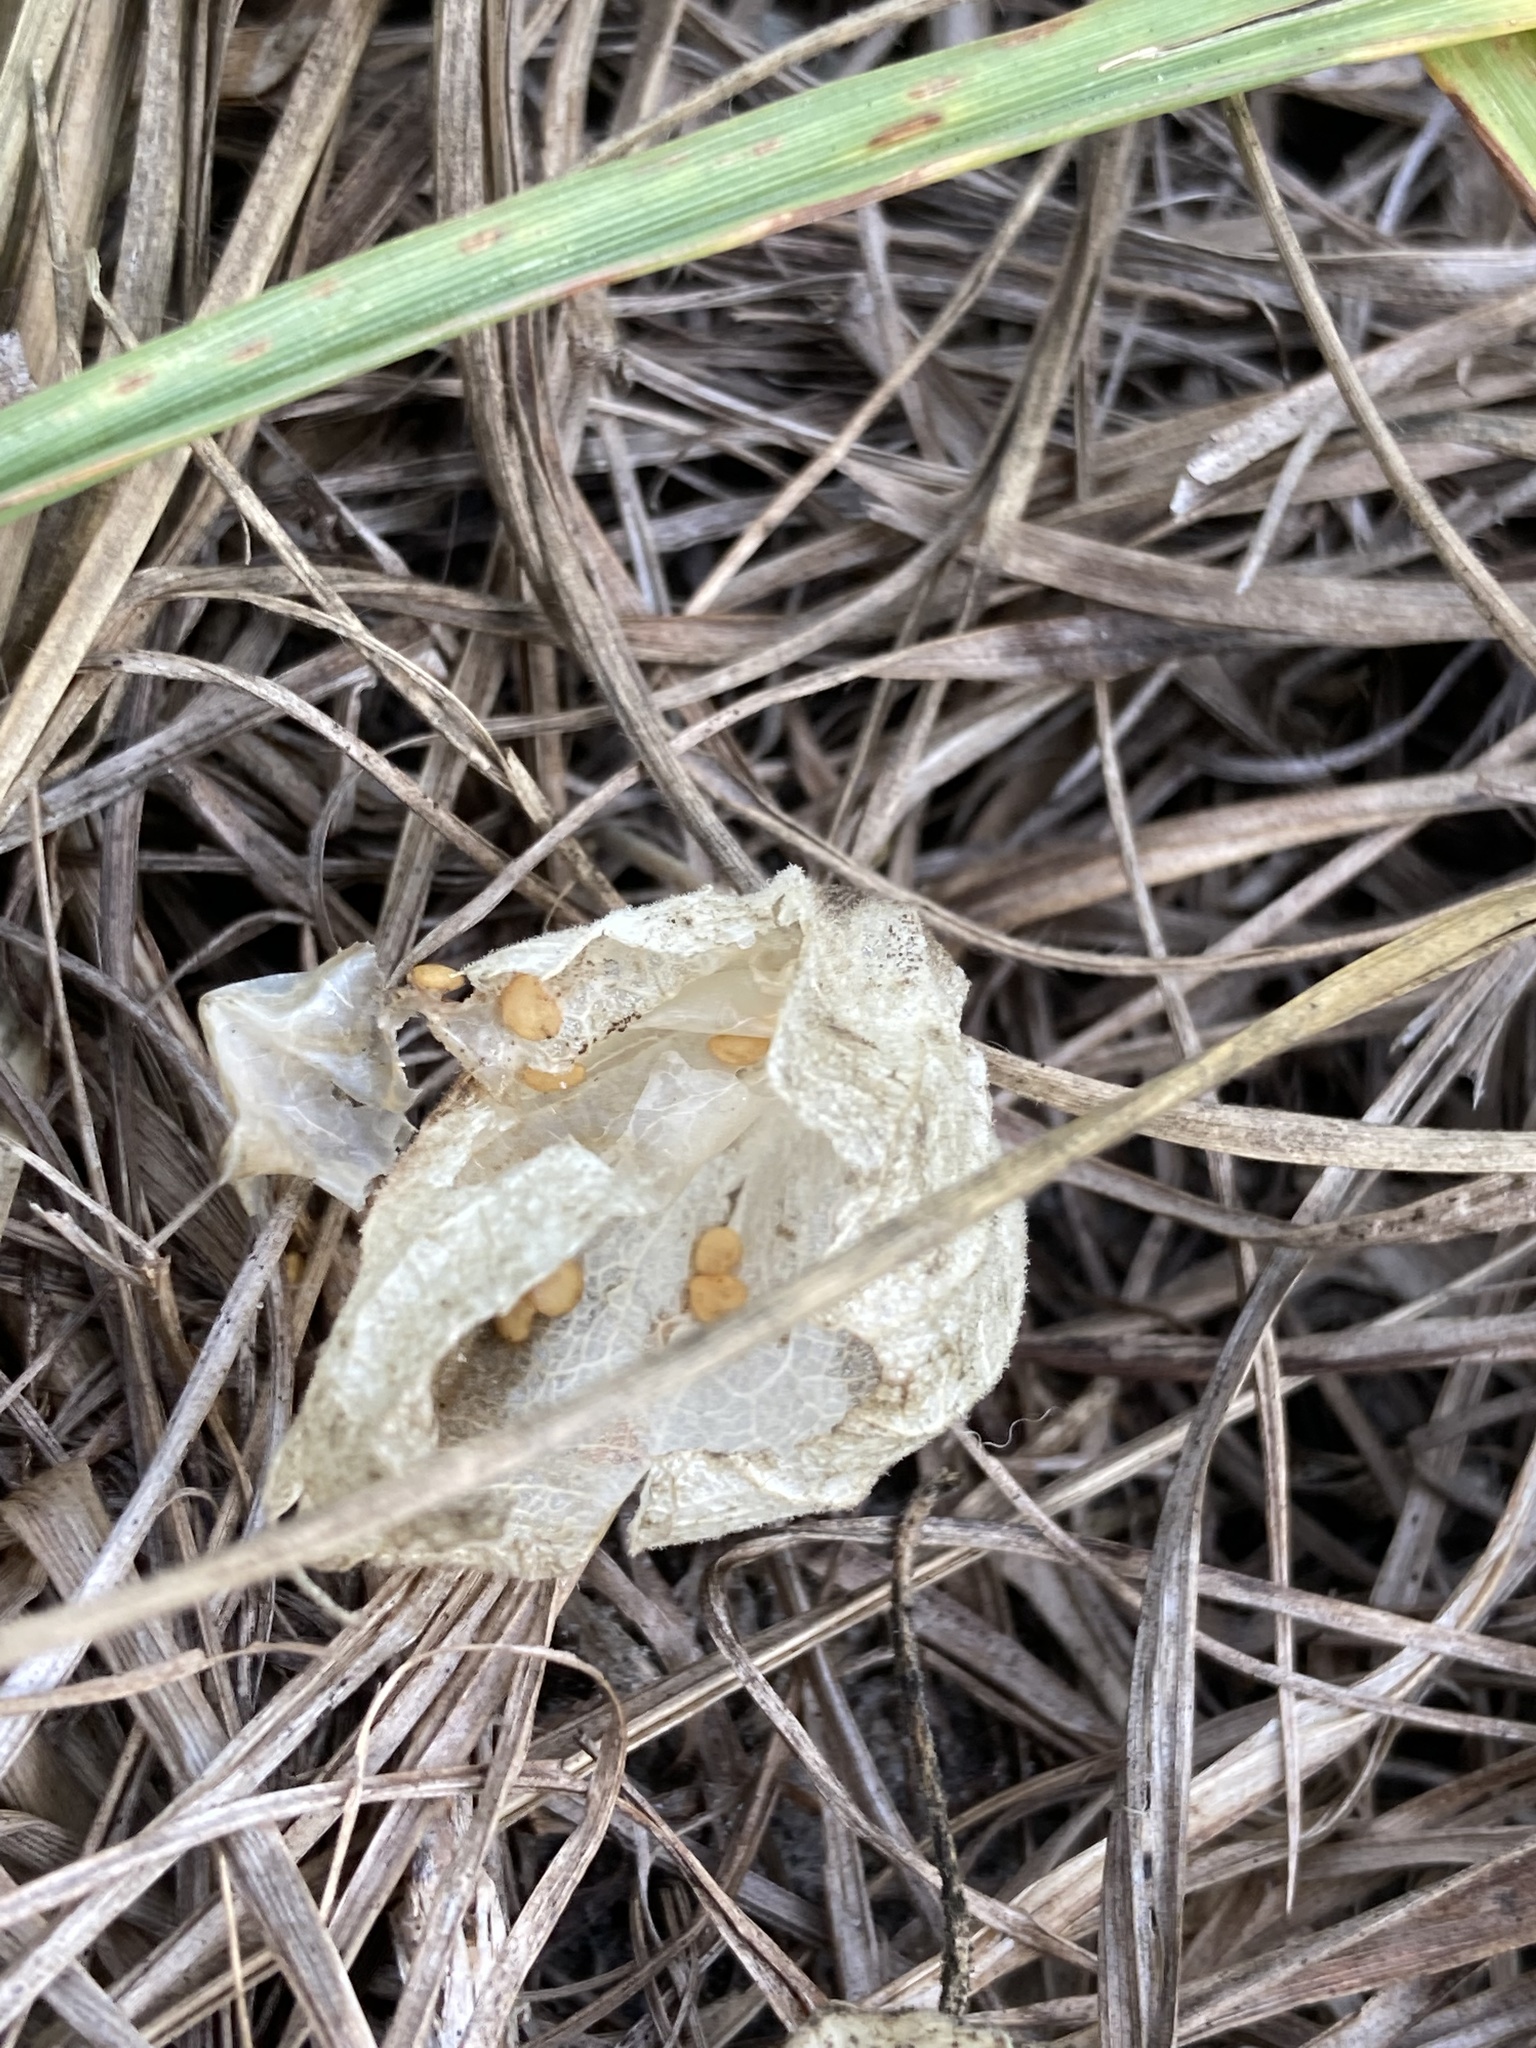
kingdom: Plantae
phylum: Tracheophyta
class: Magnoliopsida
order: Solanales
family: Solanaceae
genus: Physalis
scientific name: Physalis walteri
